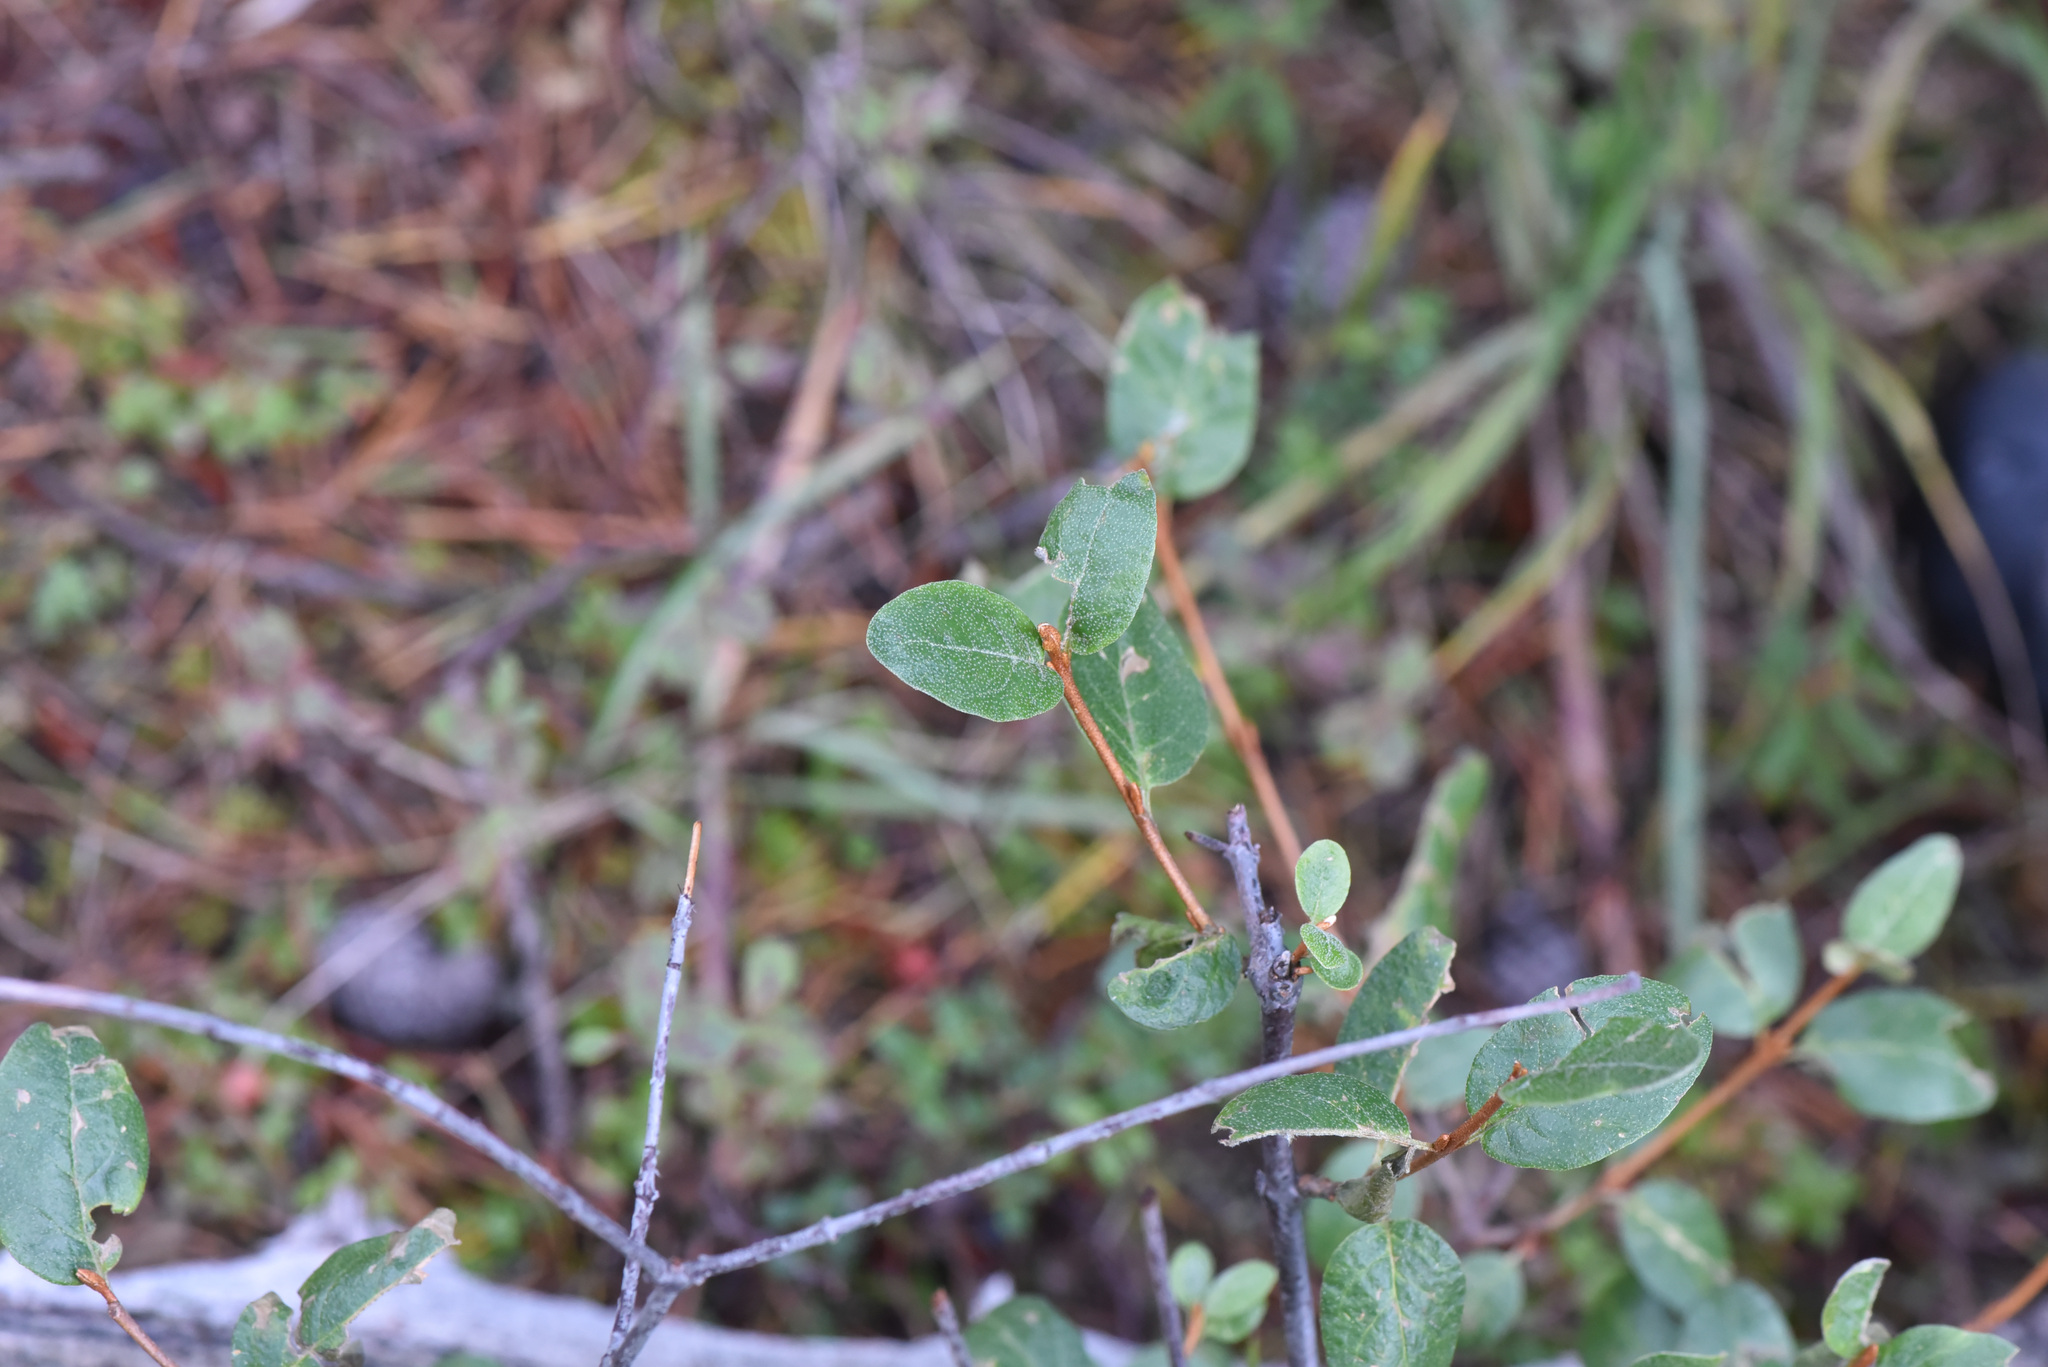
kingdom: Plantae
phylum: Tracheophyta
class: Magnoliopsida
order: Rosales
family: Elaeagnaceae
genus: Shepherdia
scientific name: Shepherdia canadensis
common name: Soapberry
